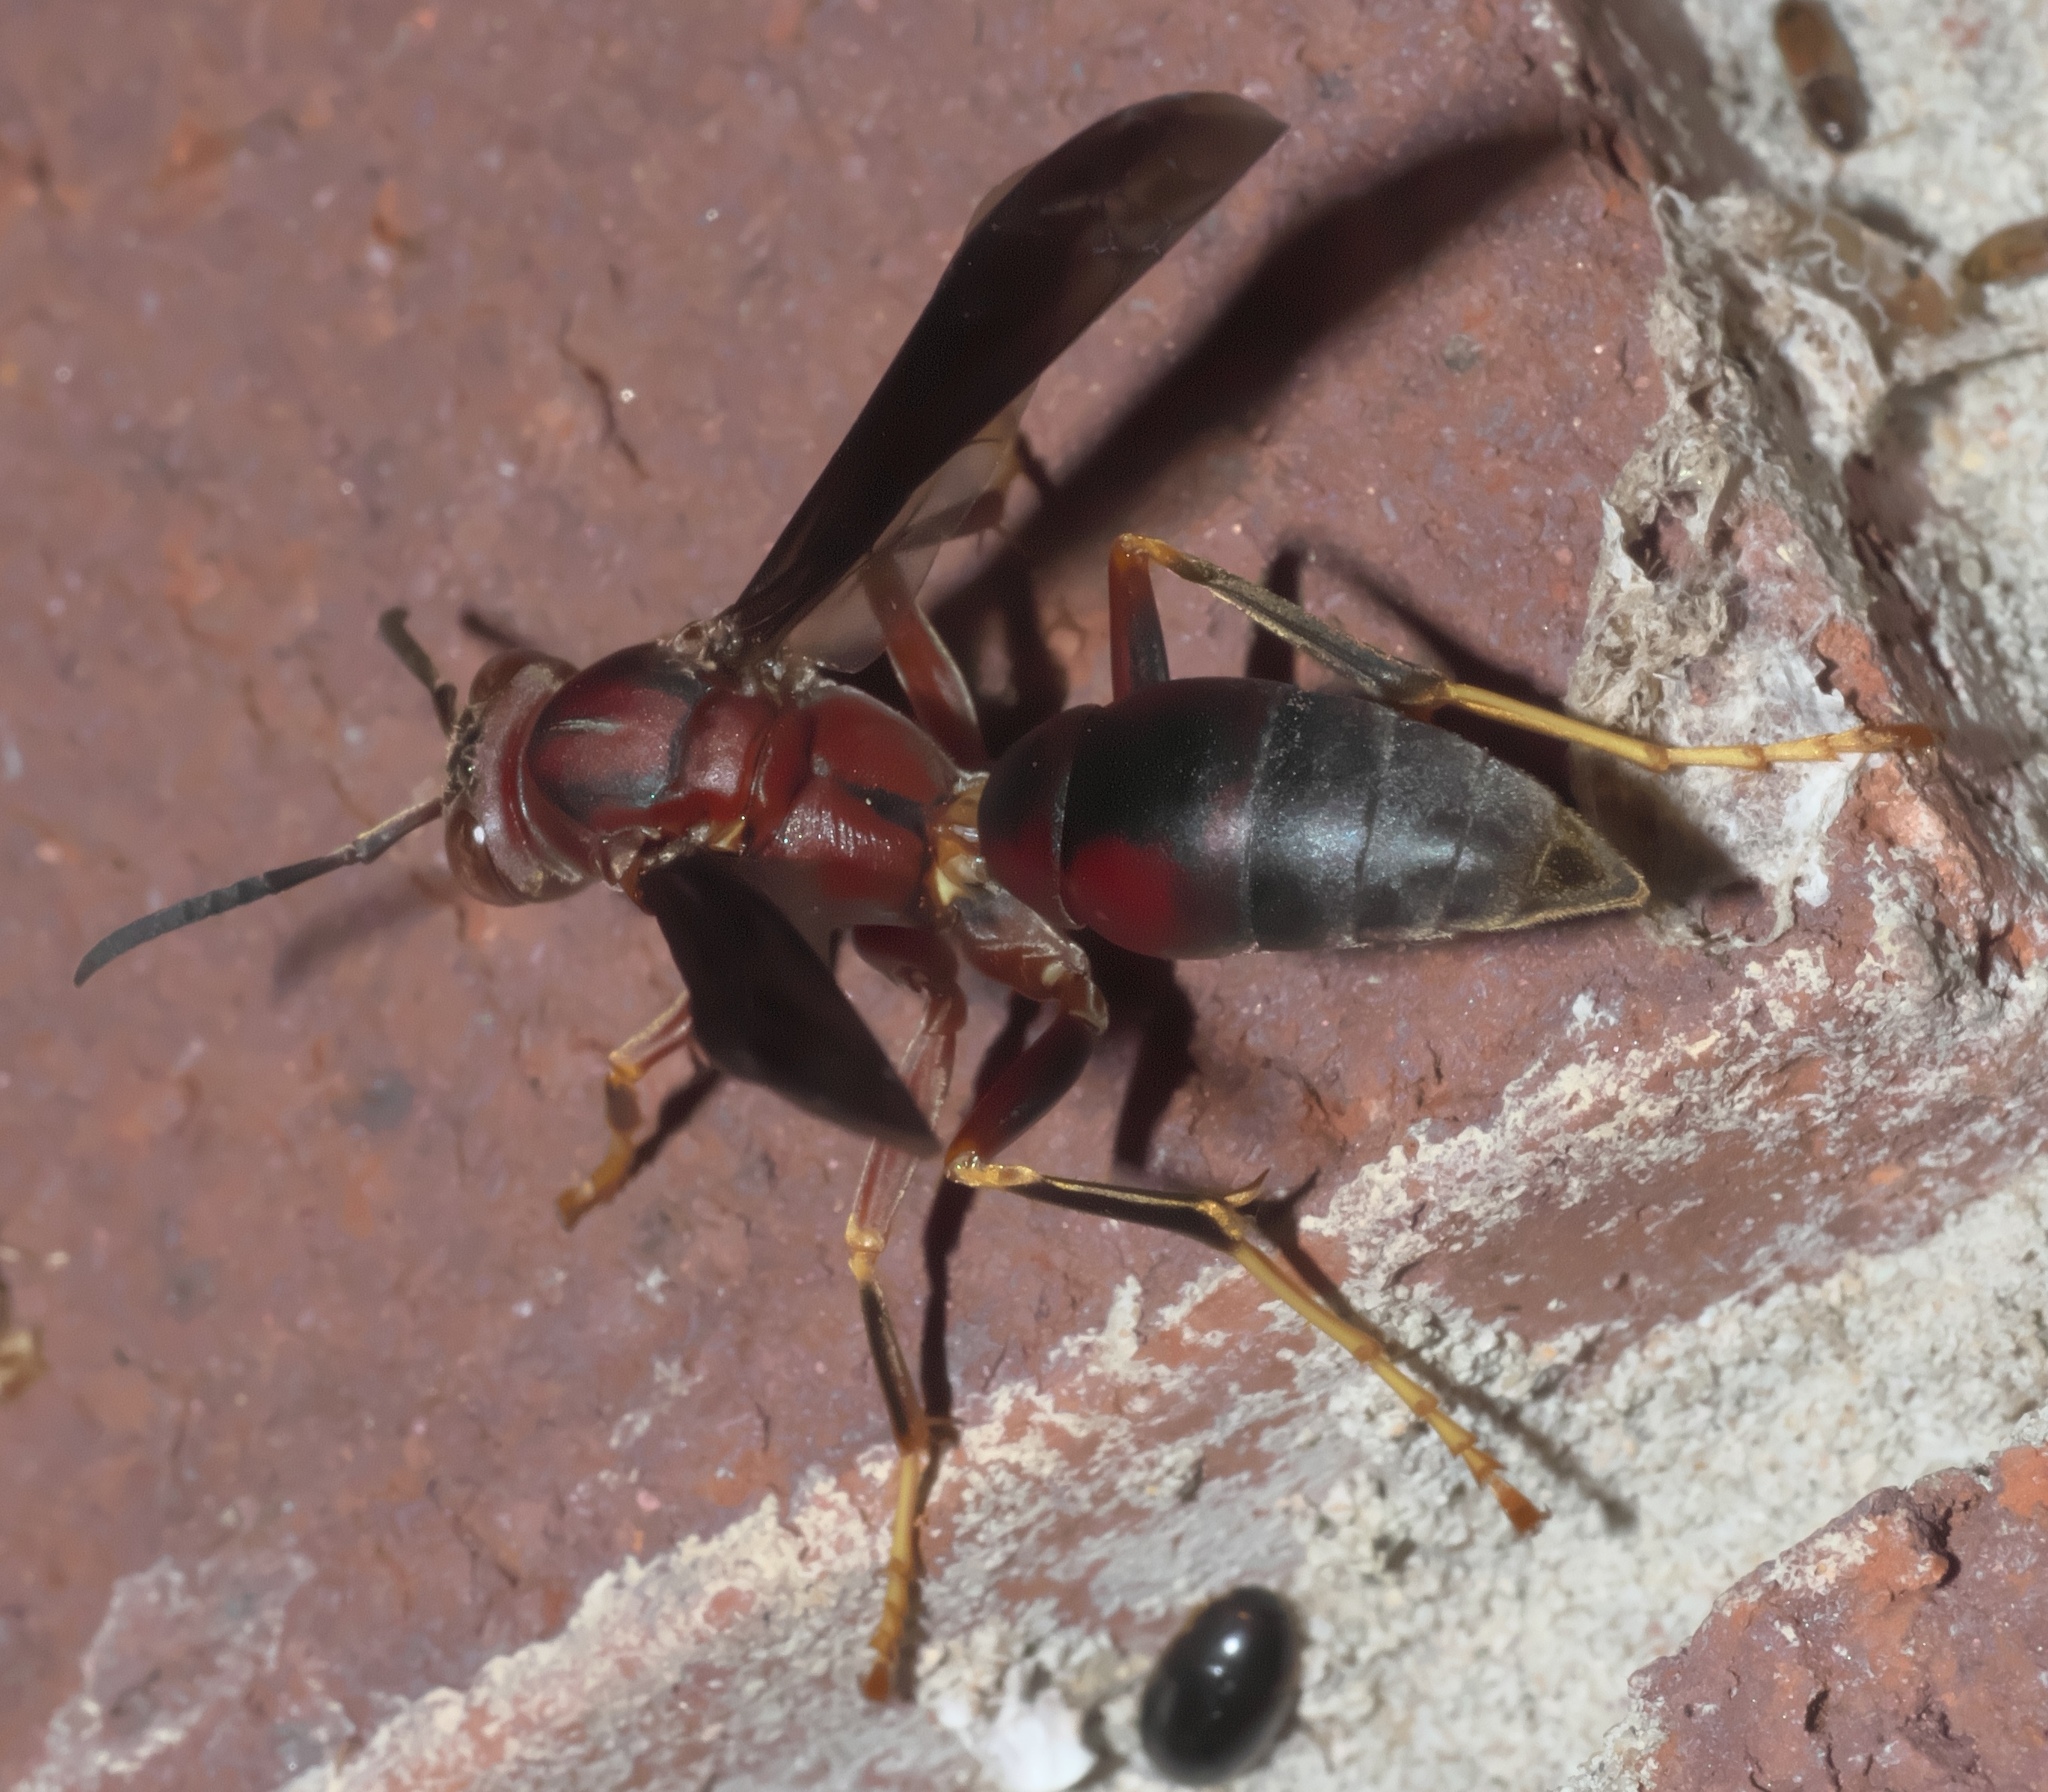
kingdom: Animalia
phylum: Arthropoda
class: Insecta
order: Hymenoptera
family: Eumenidae
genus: Polistes
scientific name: Polistes metricus
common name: Metric paper wasp
